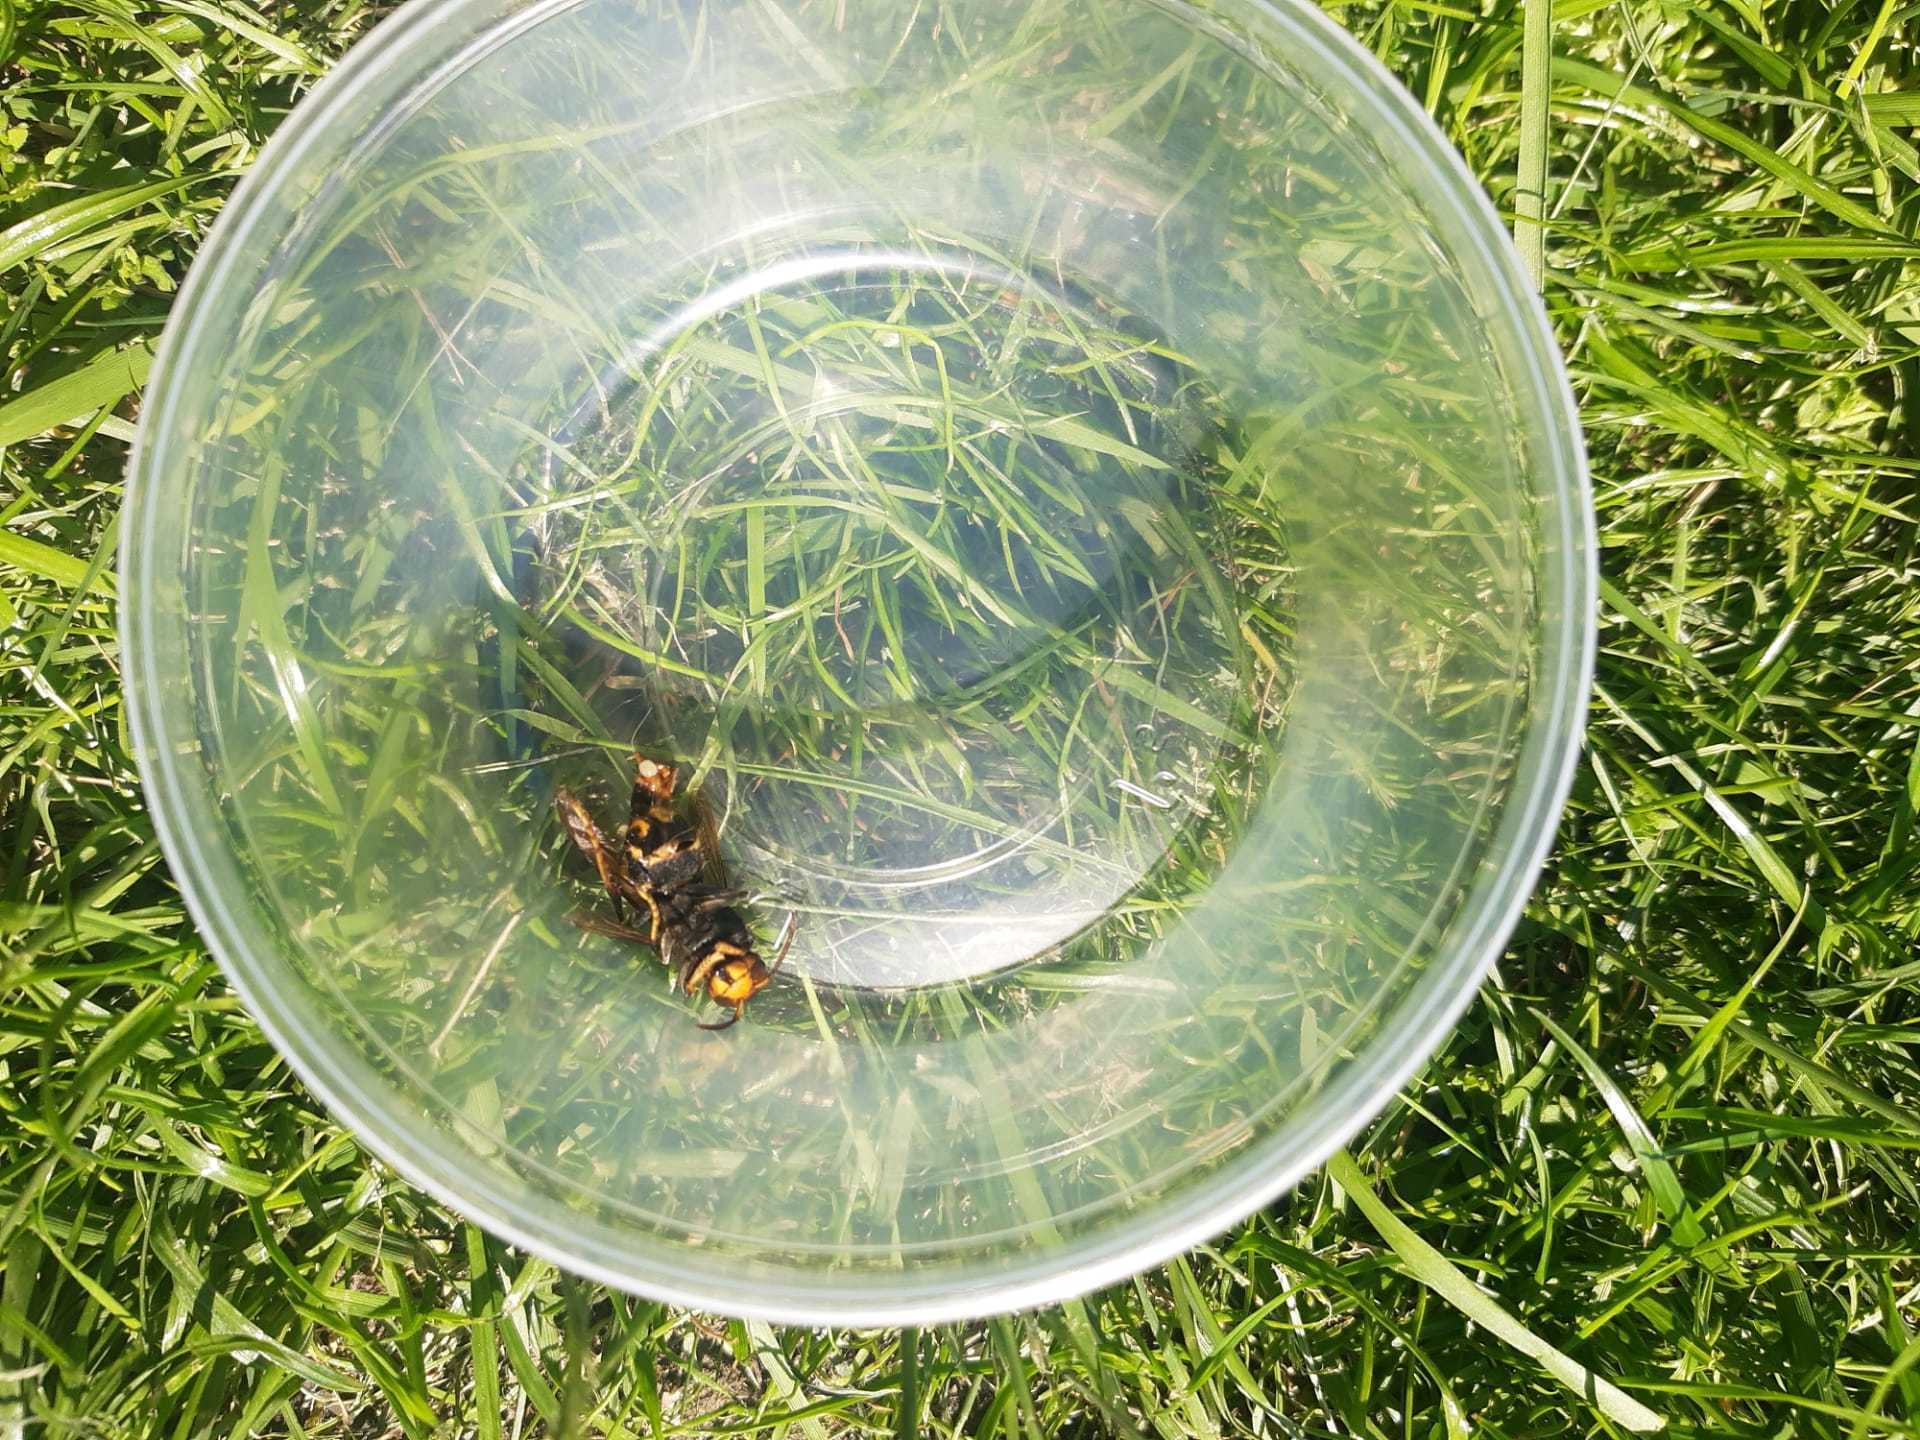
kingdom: Animalia
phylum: Arthropoda
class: Insecta
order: Hymenoptera
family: Vespidae
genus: Vespa
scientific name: Vespa velutina
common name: Asian hornet
